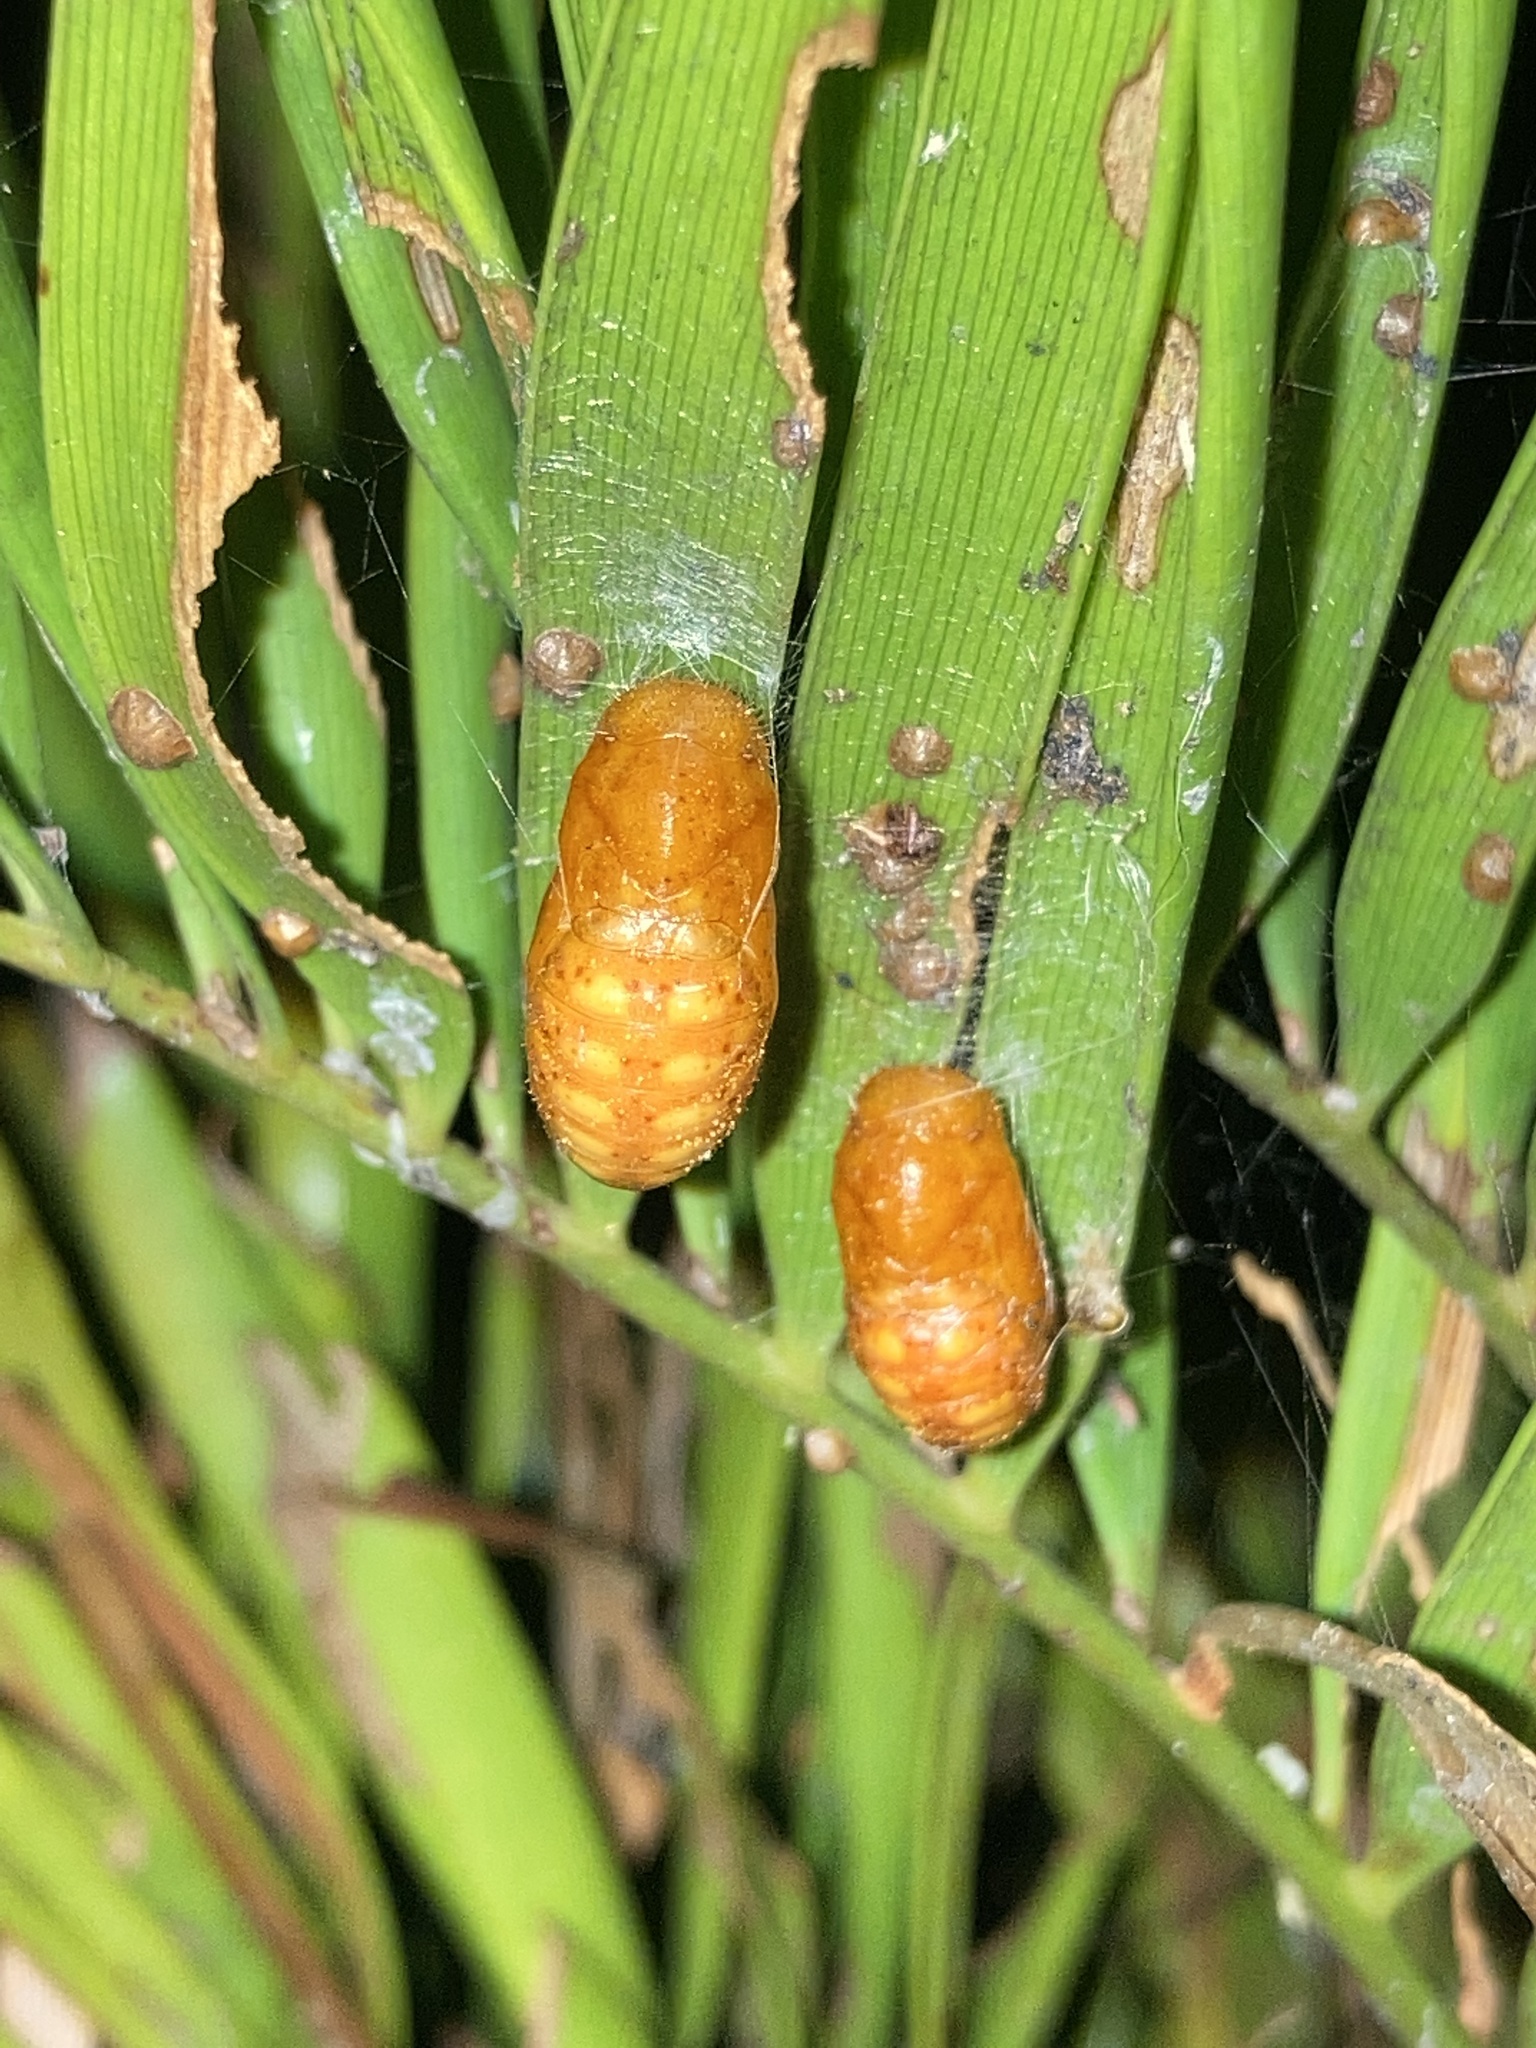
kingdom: Animalia
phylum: Arthropoda
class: Insecta
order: Lepidoptera
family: Lycaenidae
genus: Eumaeus
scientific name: Eumaeus atala
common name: Atala
